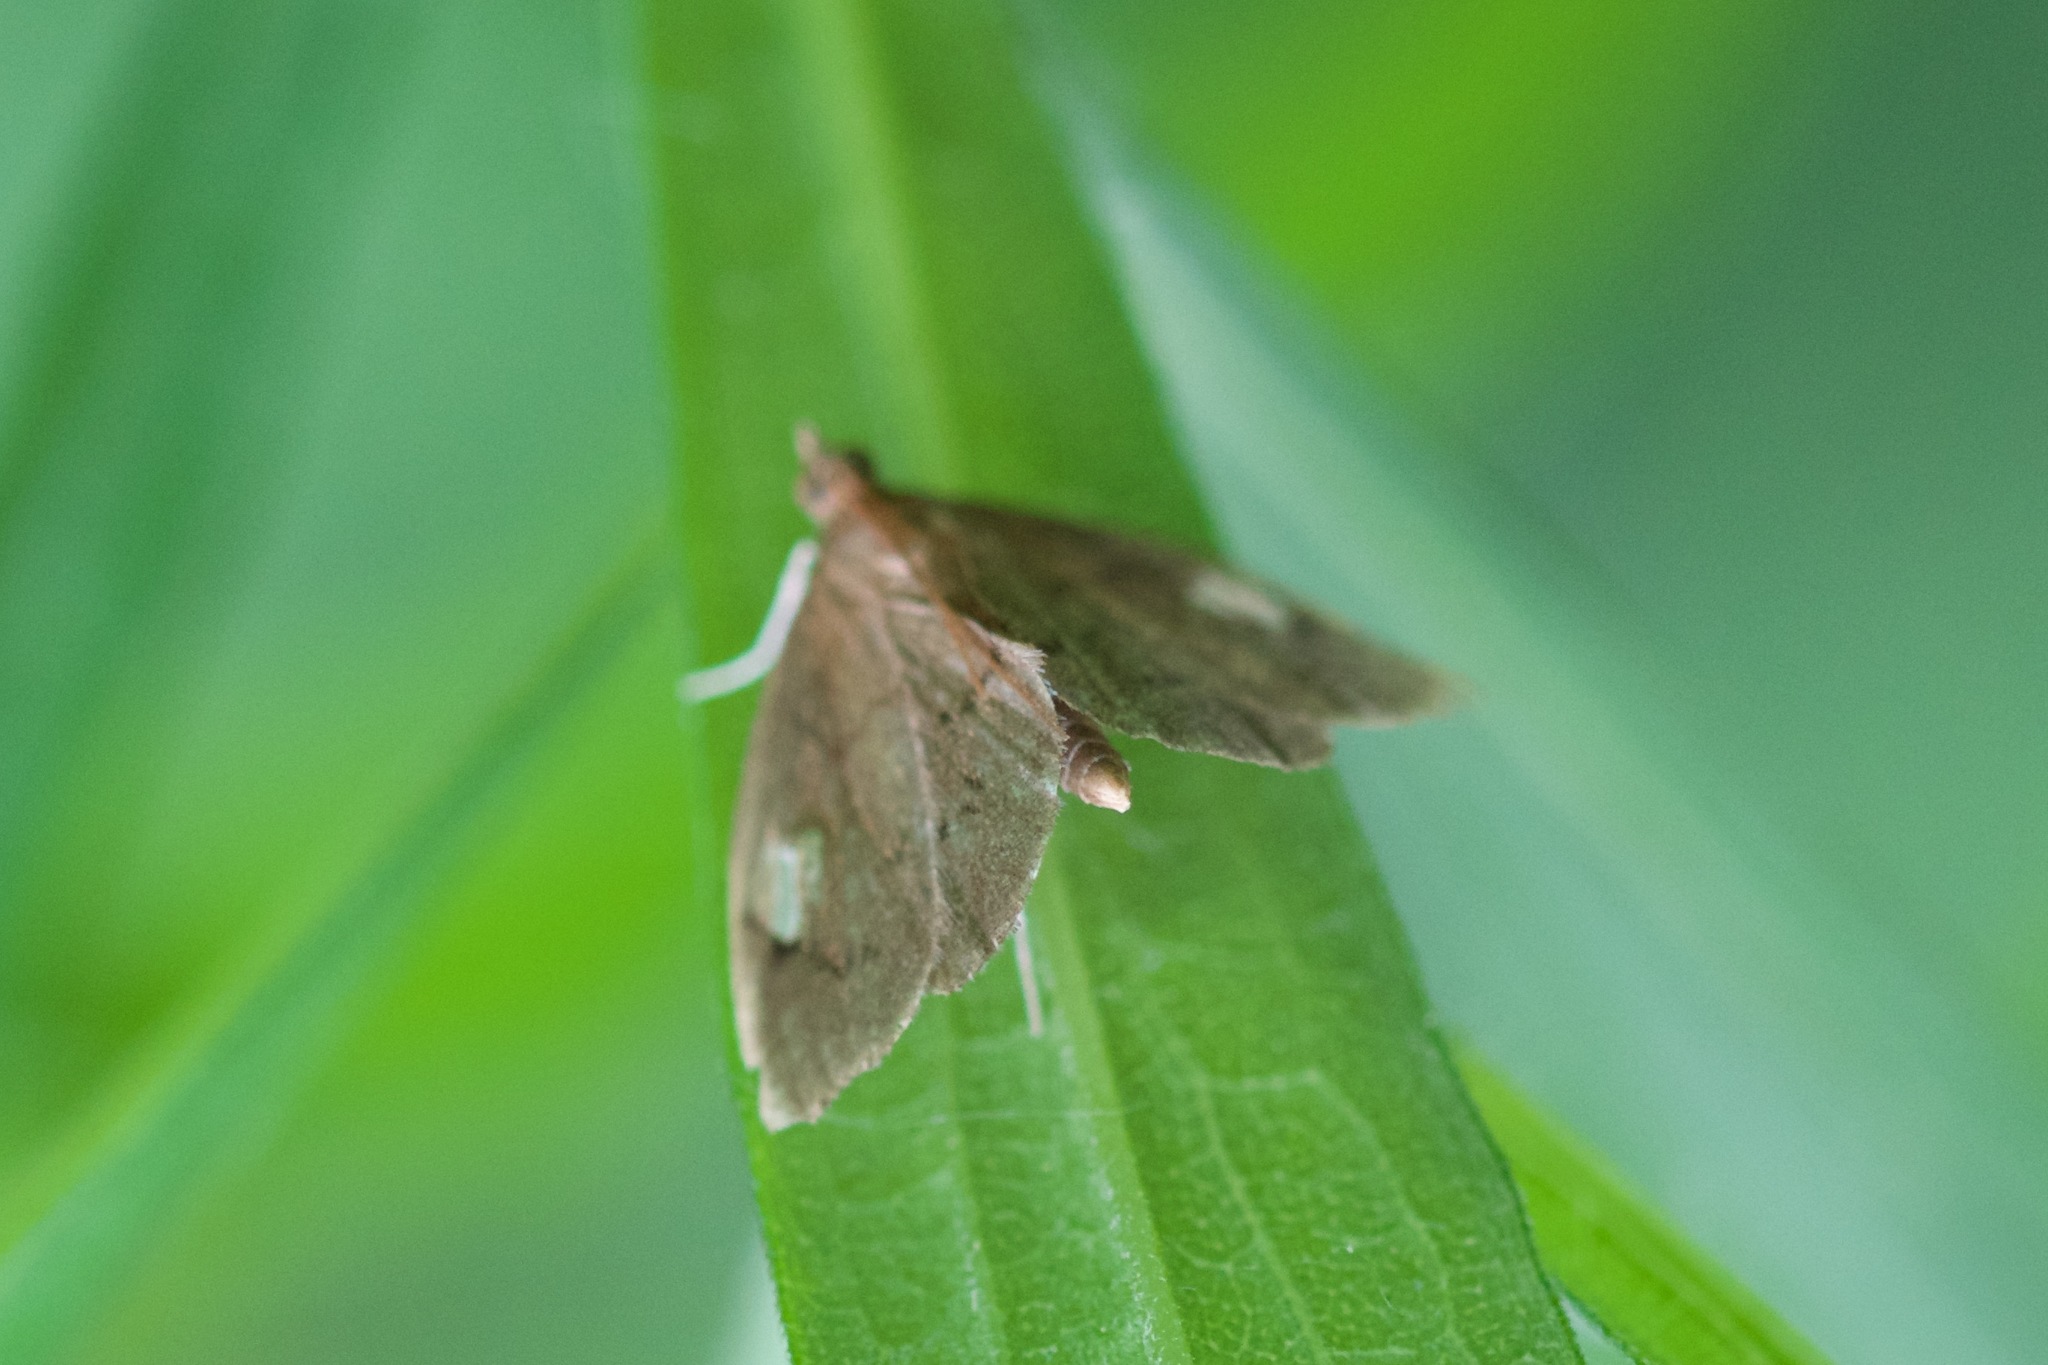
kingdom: Animalia
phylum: Arthropoda
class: Insecta
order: Lepidoptera
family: Crambidae
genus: Perispasta
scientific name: Perispasta caeculalis
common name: Titian peale's moth
